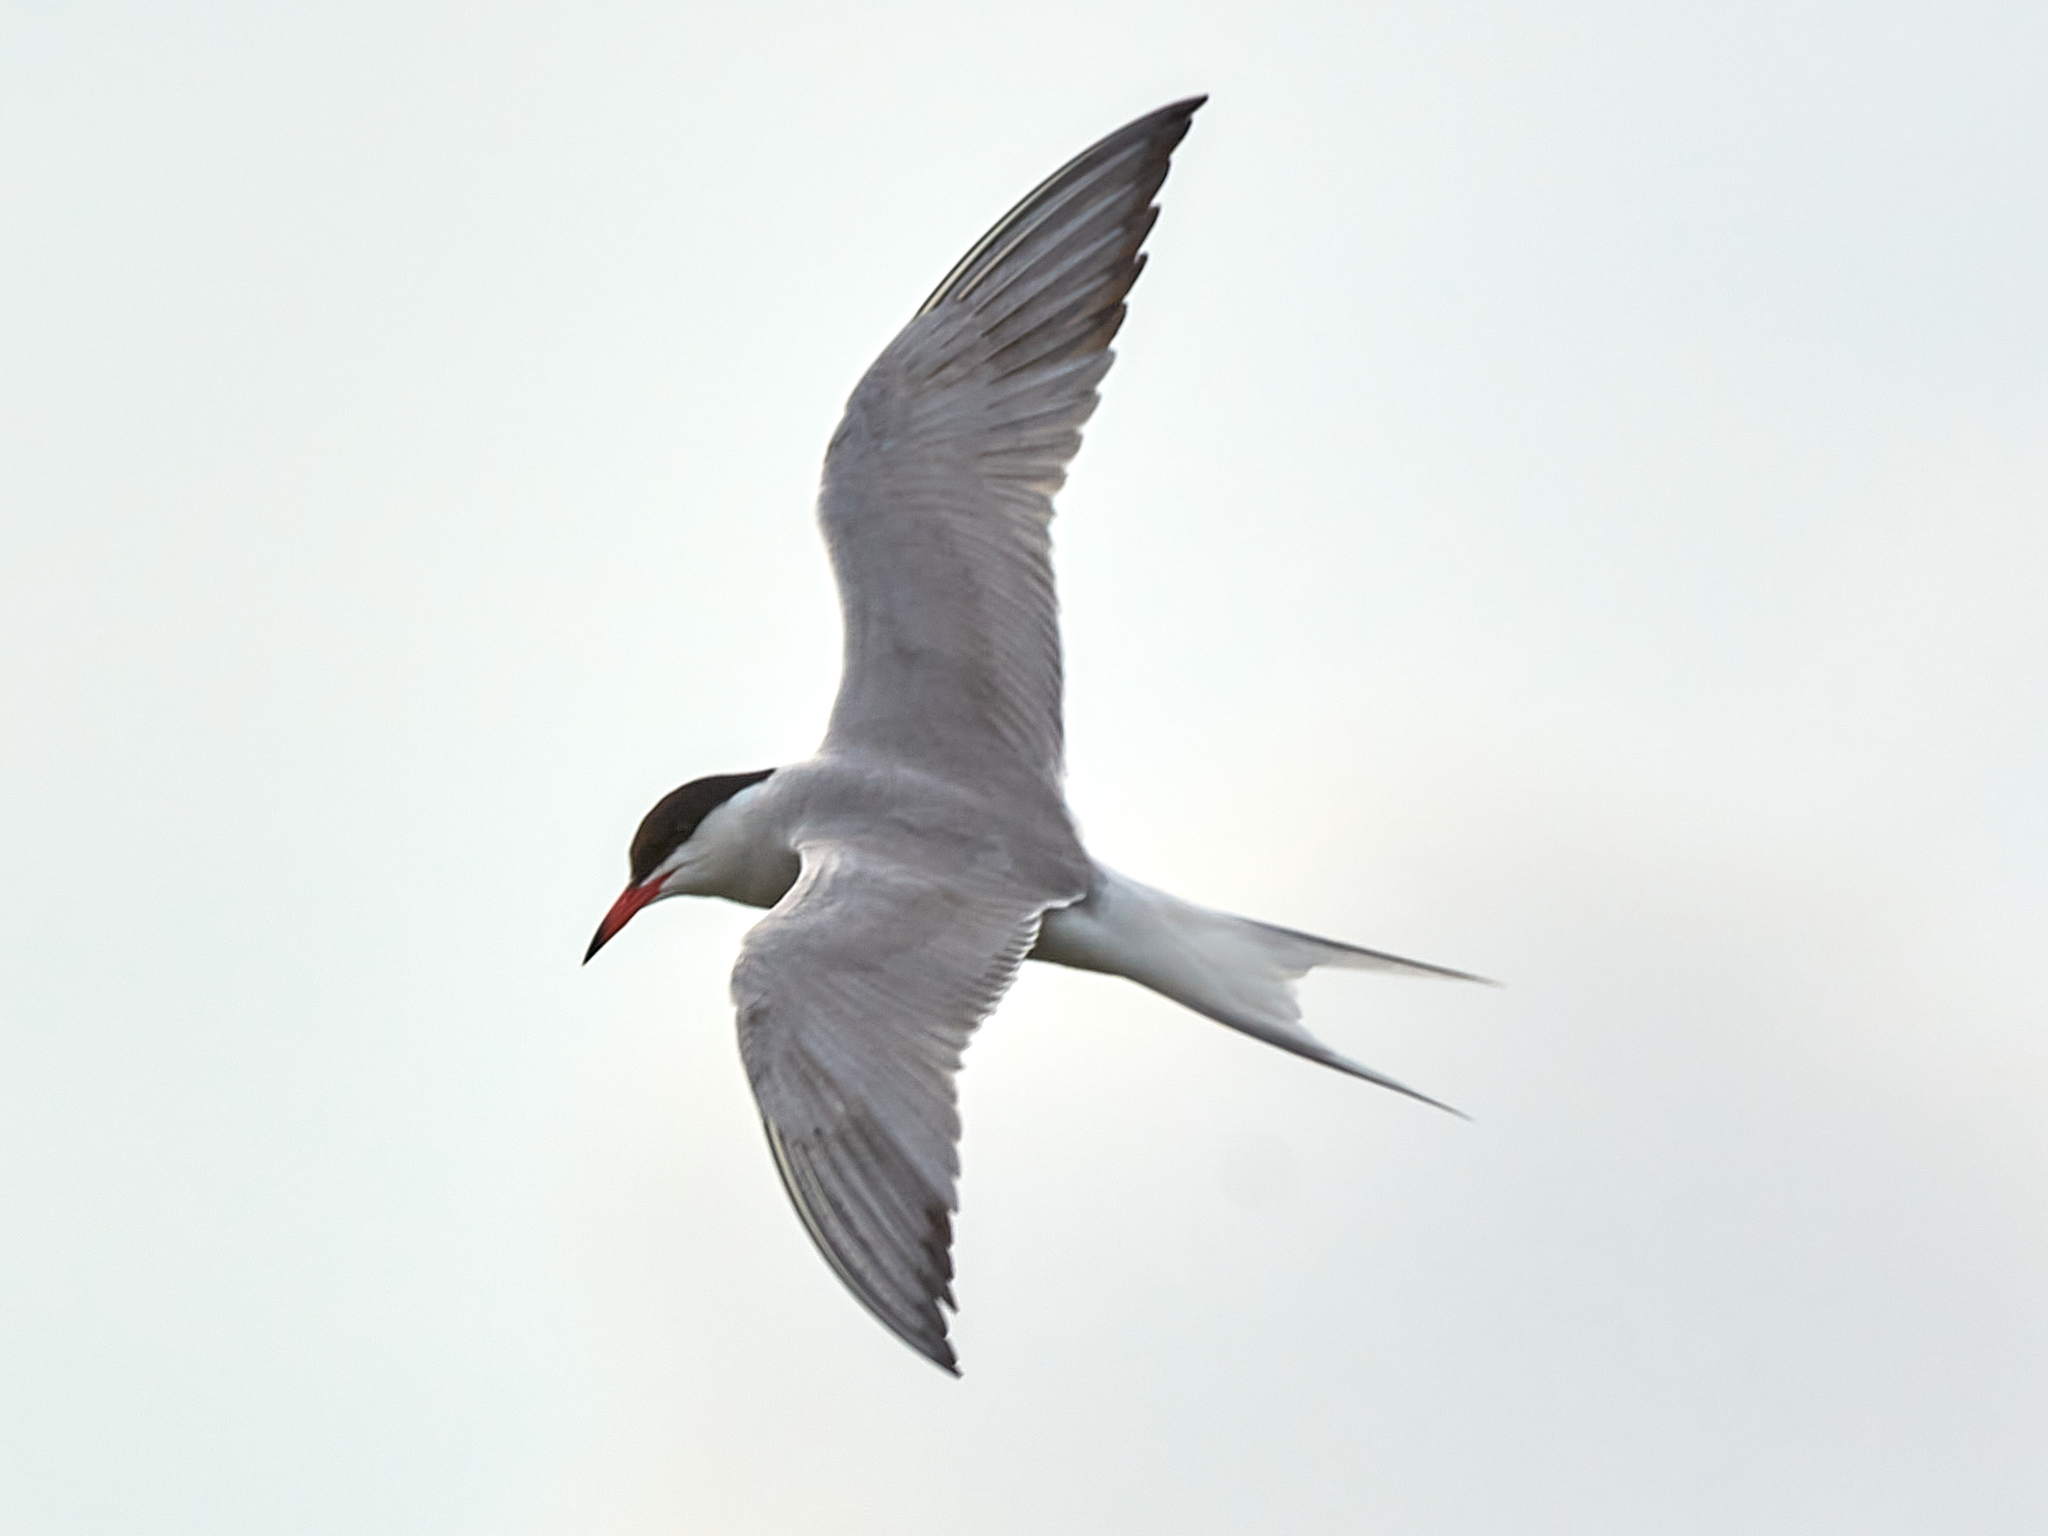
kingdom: Animalia
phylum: Chordata
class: Aves
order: Charadriiformes
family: Laridae
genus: Sterna
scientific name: Sterna hirundo
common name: Common tern
